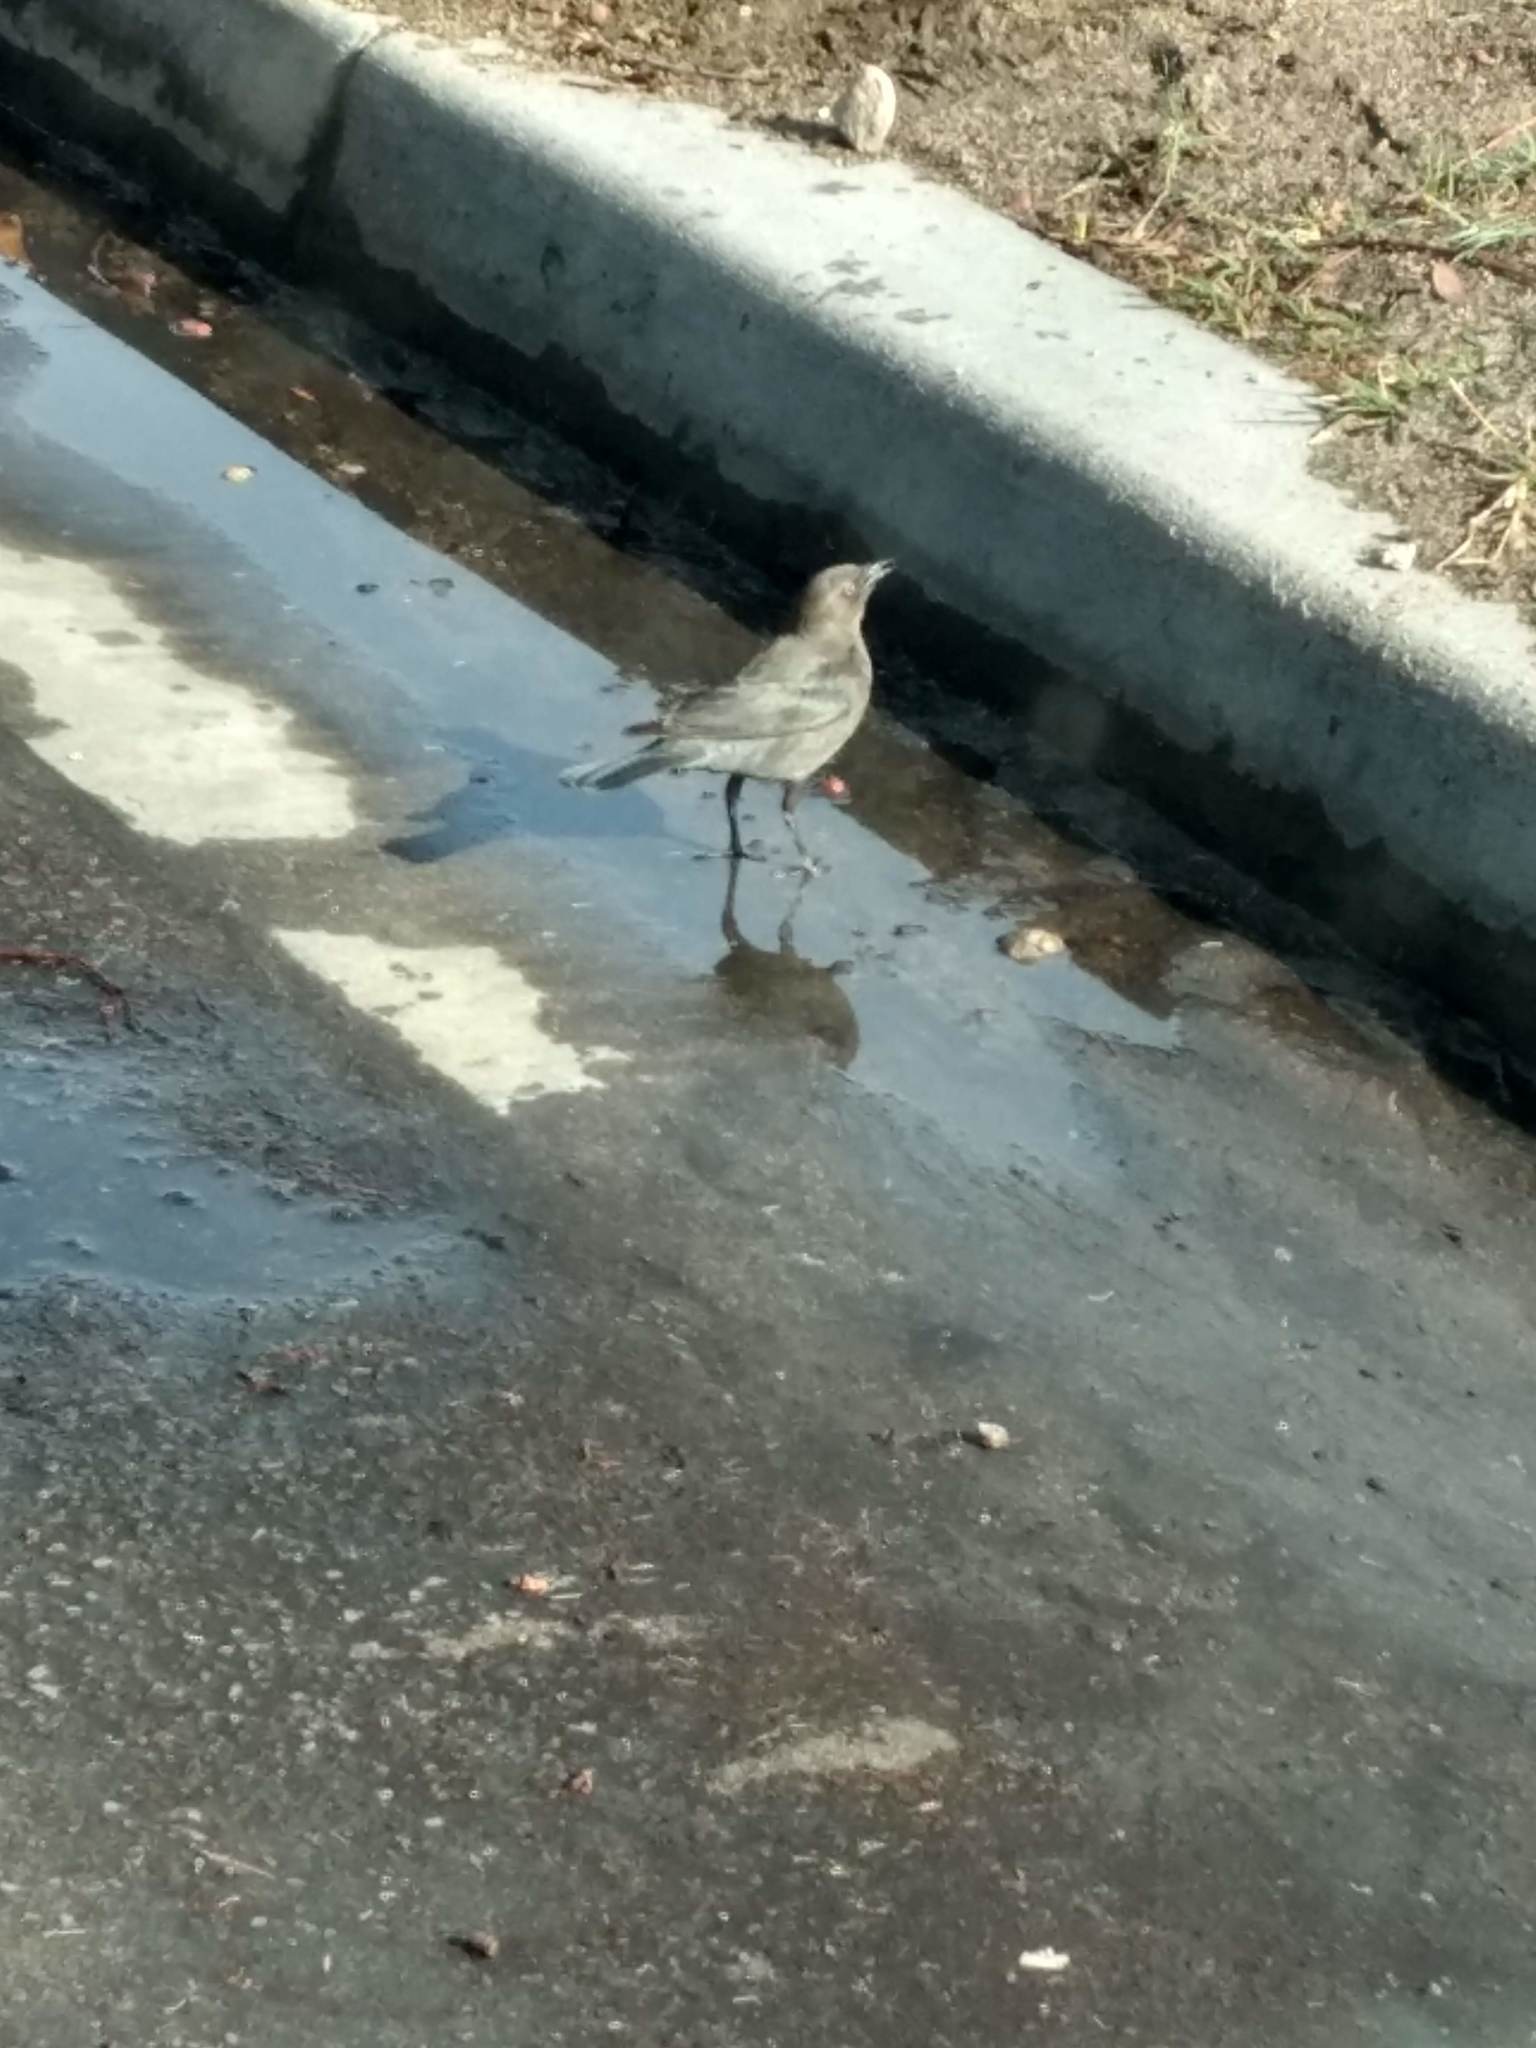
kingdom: Animalia
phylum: Chordata
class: Aves
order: Passeriformes
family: Icteridae
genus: Euphagus
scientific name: Euphagus cyanocephalus
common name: Brewer's blackbird
